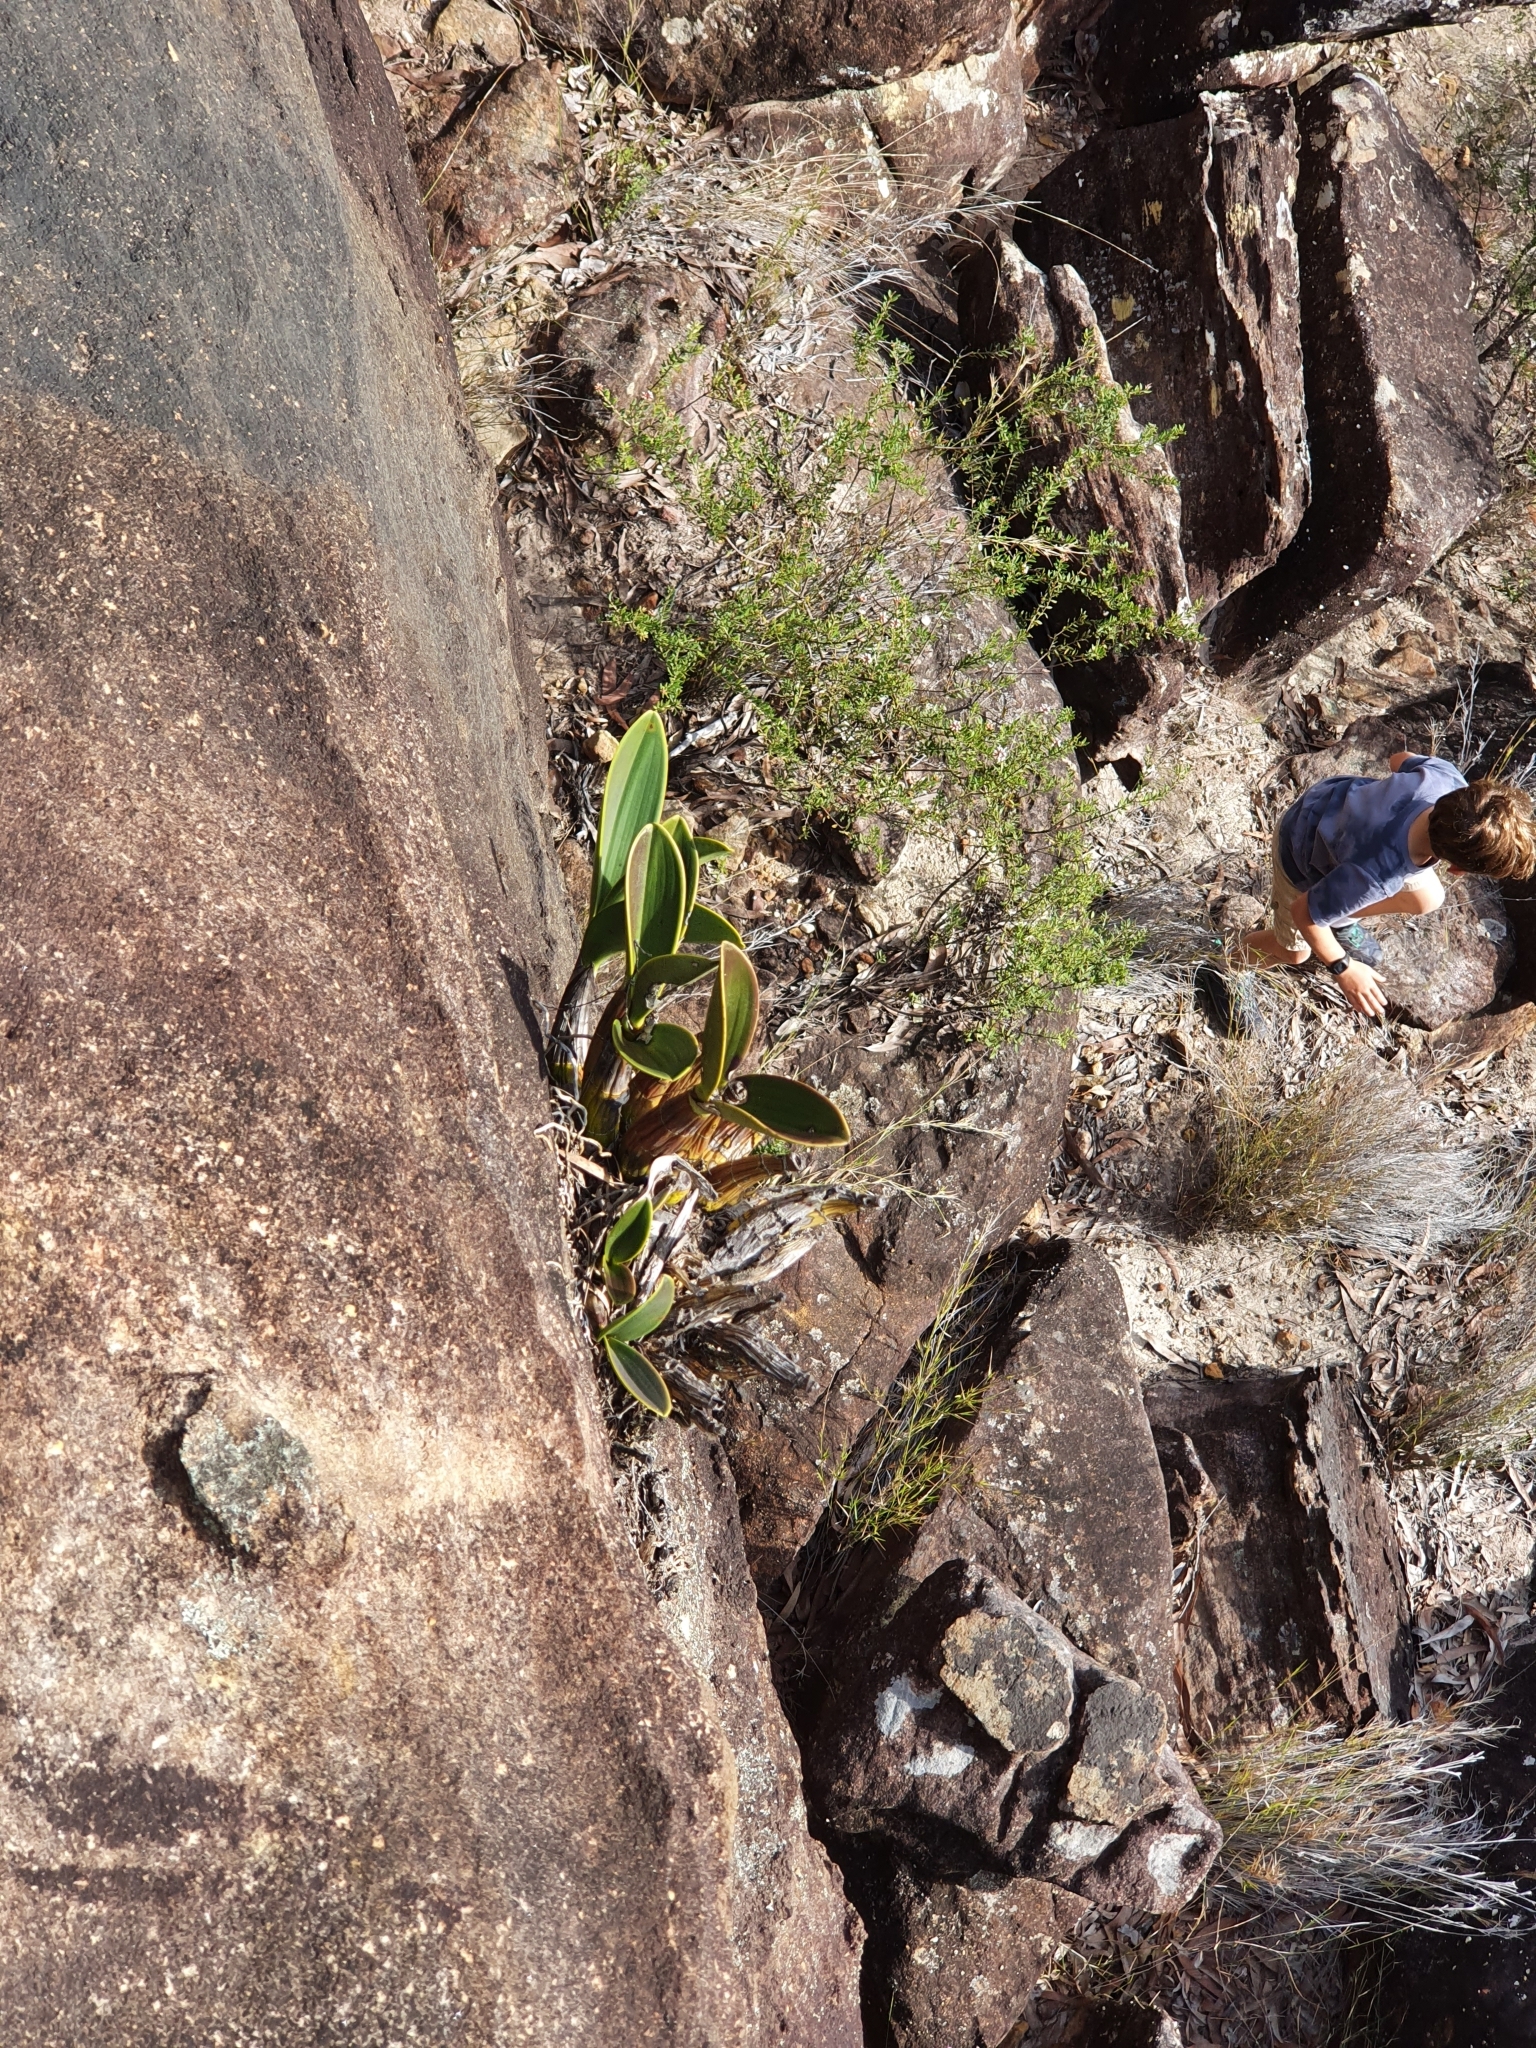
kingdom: Plantae
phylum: Tracheophyta
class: Liliopsida
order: Asparagales
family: Orchidaceae
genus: Dendrobium
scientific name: Dendrobium speciosum
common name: Rock-lily
